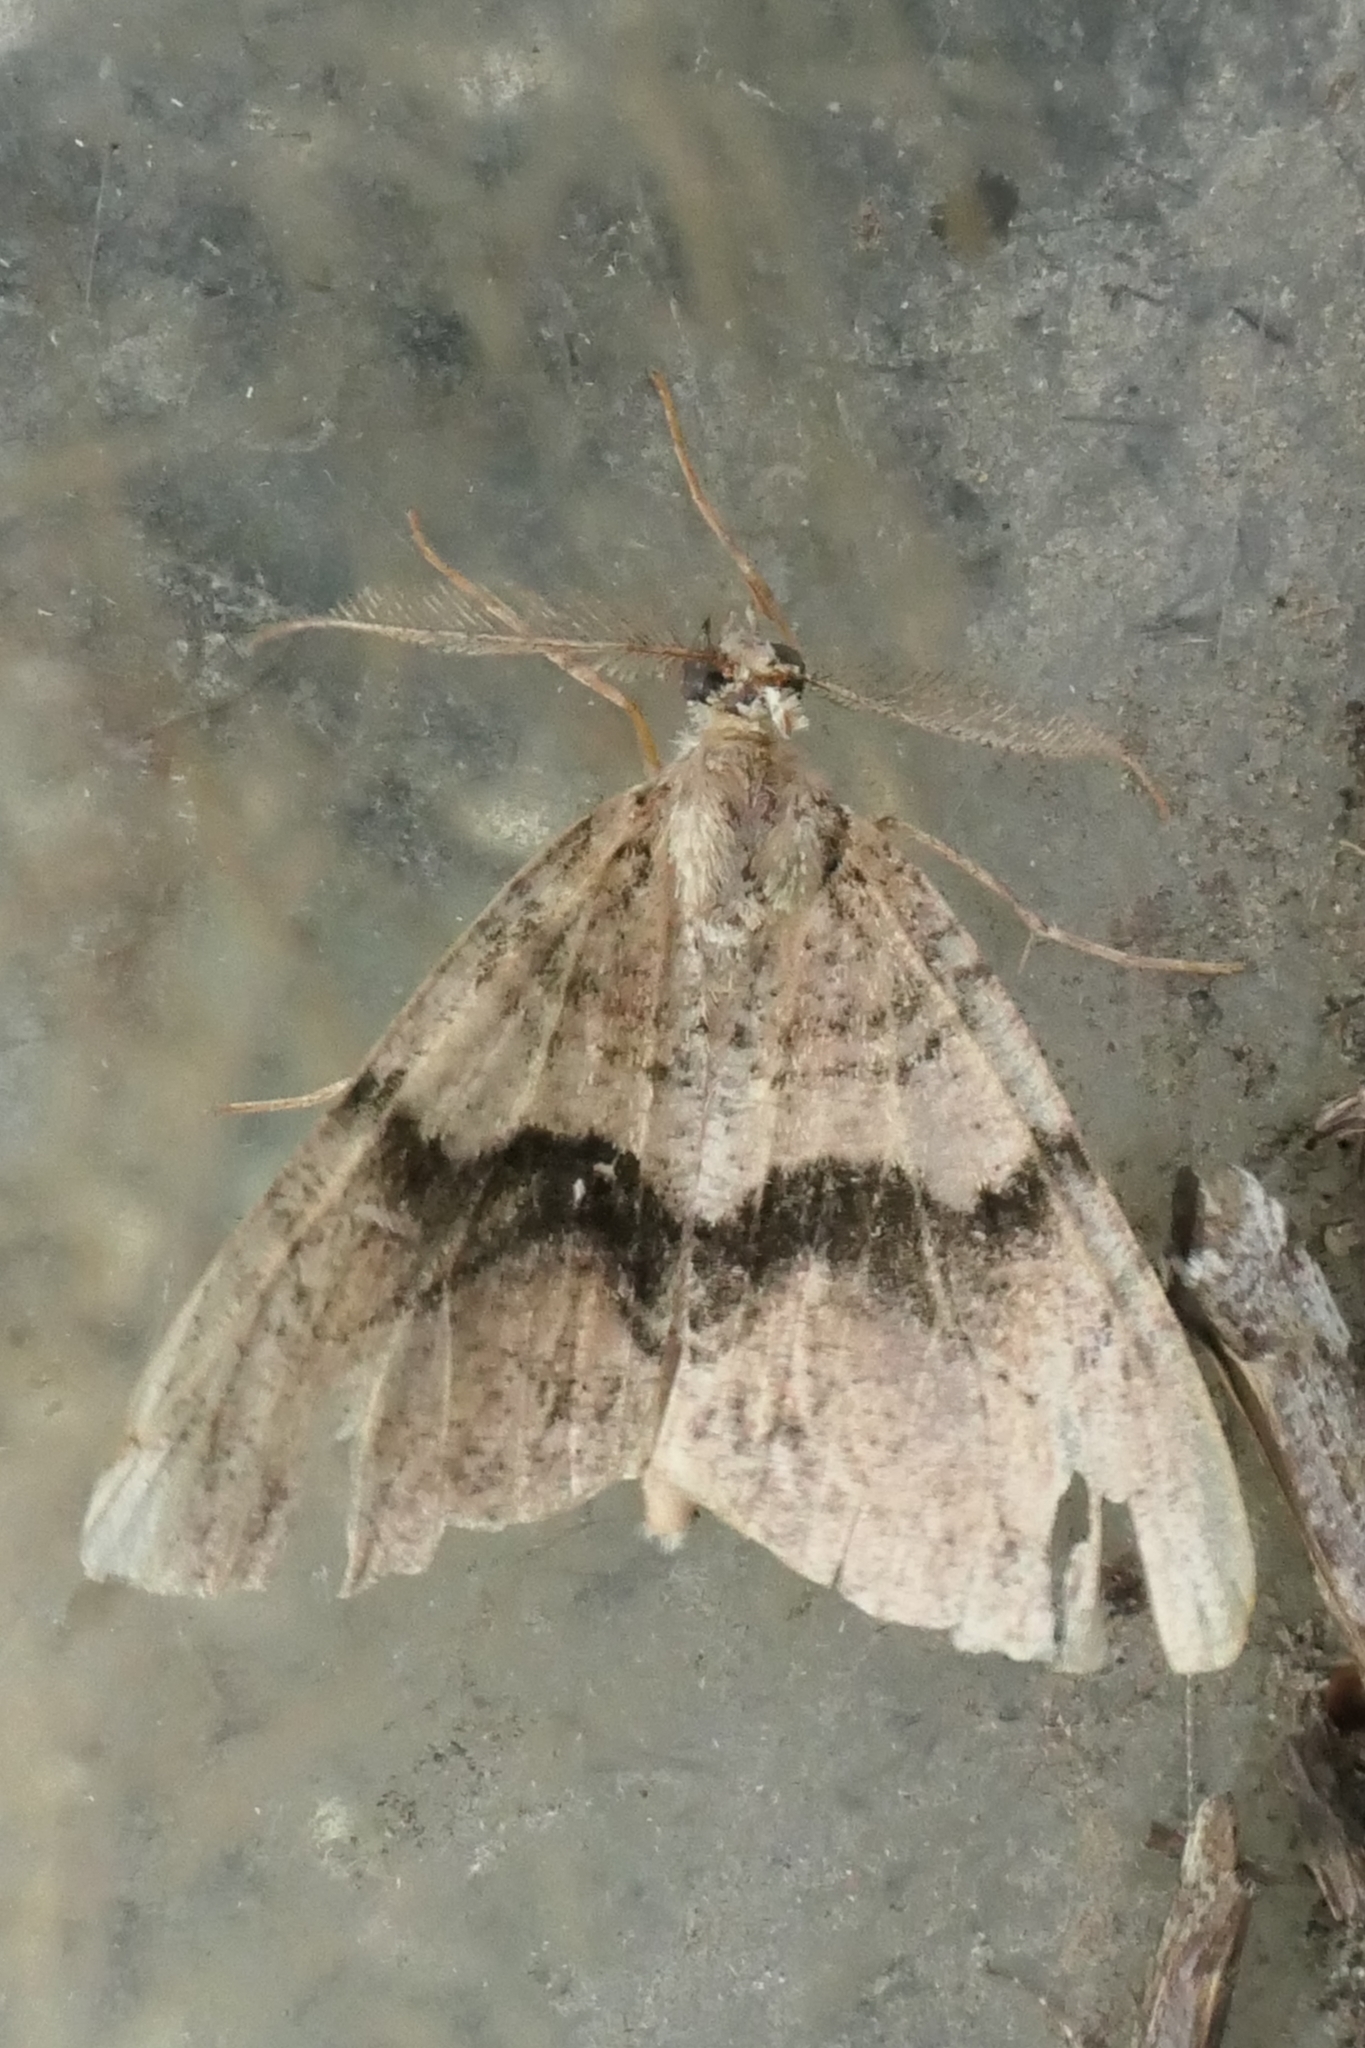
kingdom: Animalia
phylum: Arthropoda
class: Insecta
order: Lepidoptera
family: Geometridae
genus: Pseudocoremia
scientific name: Pseudocoremia suavis
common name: Common forest looper
